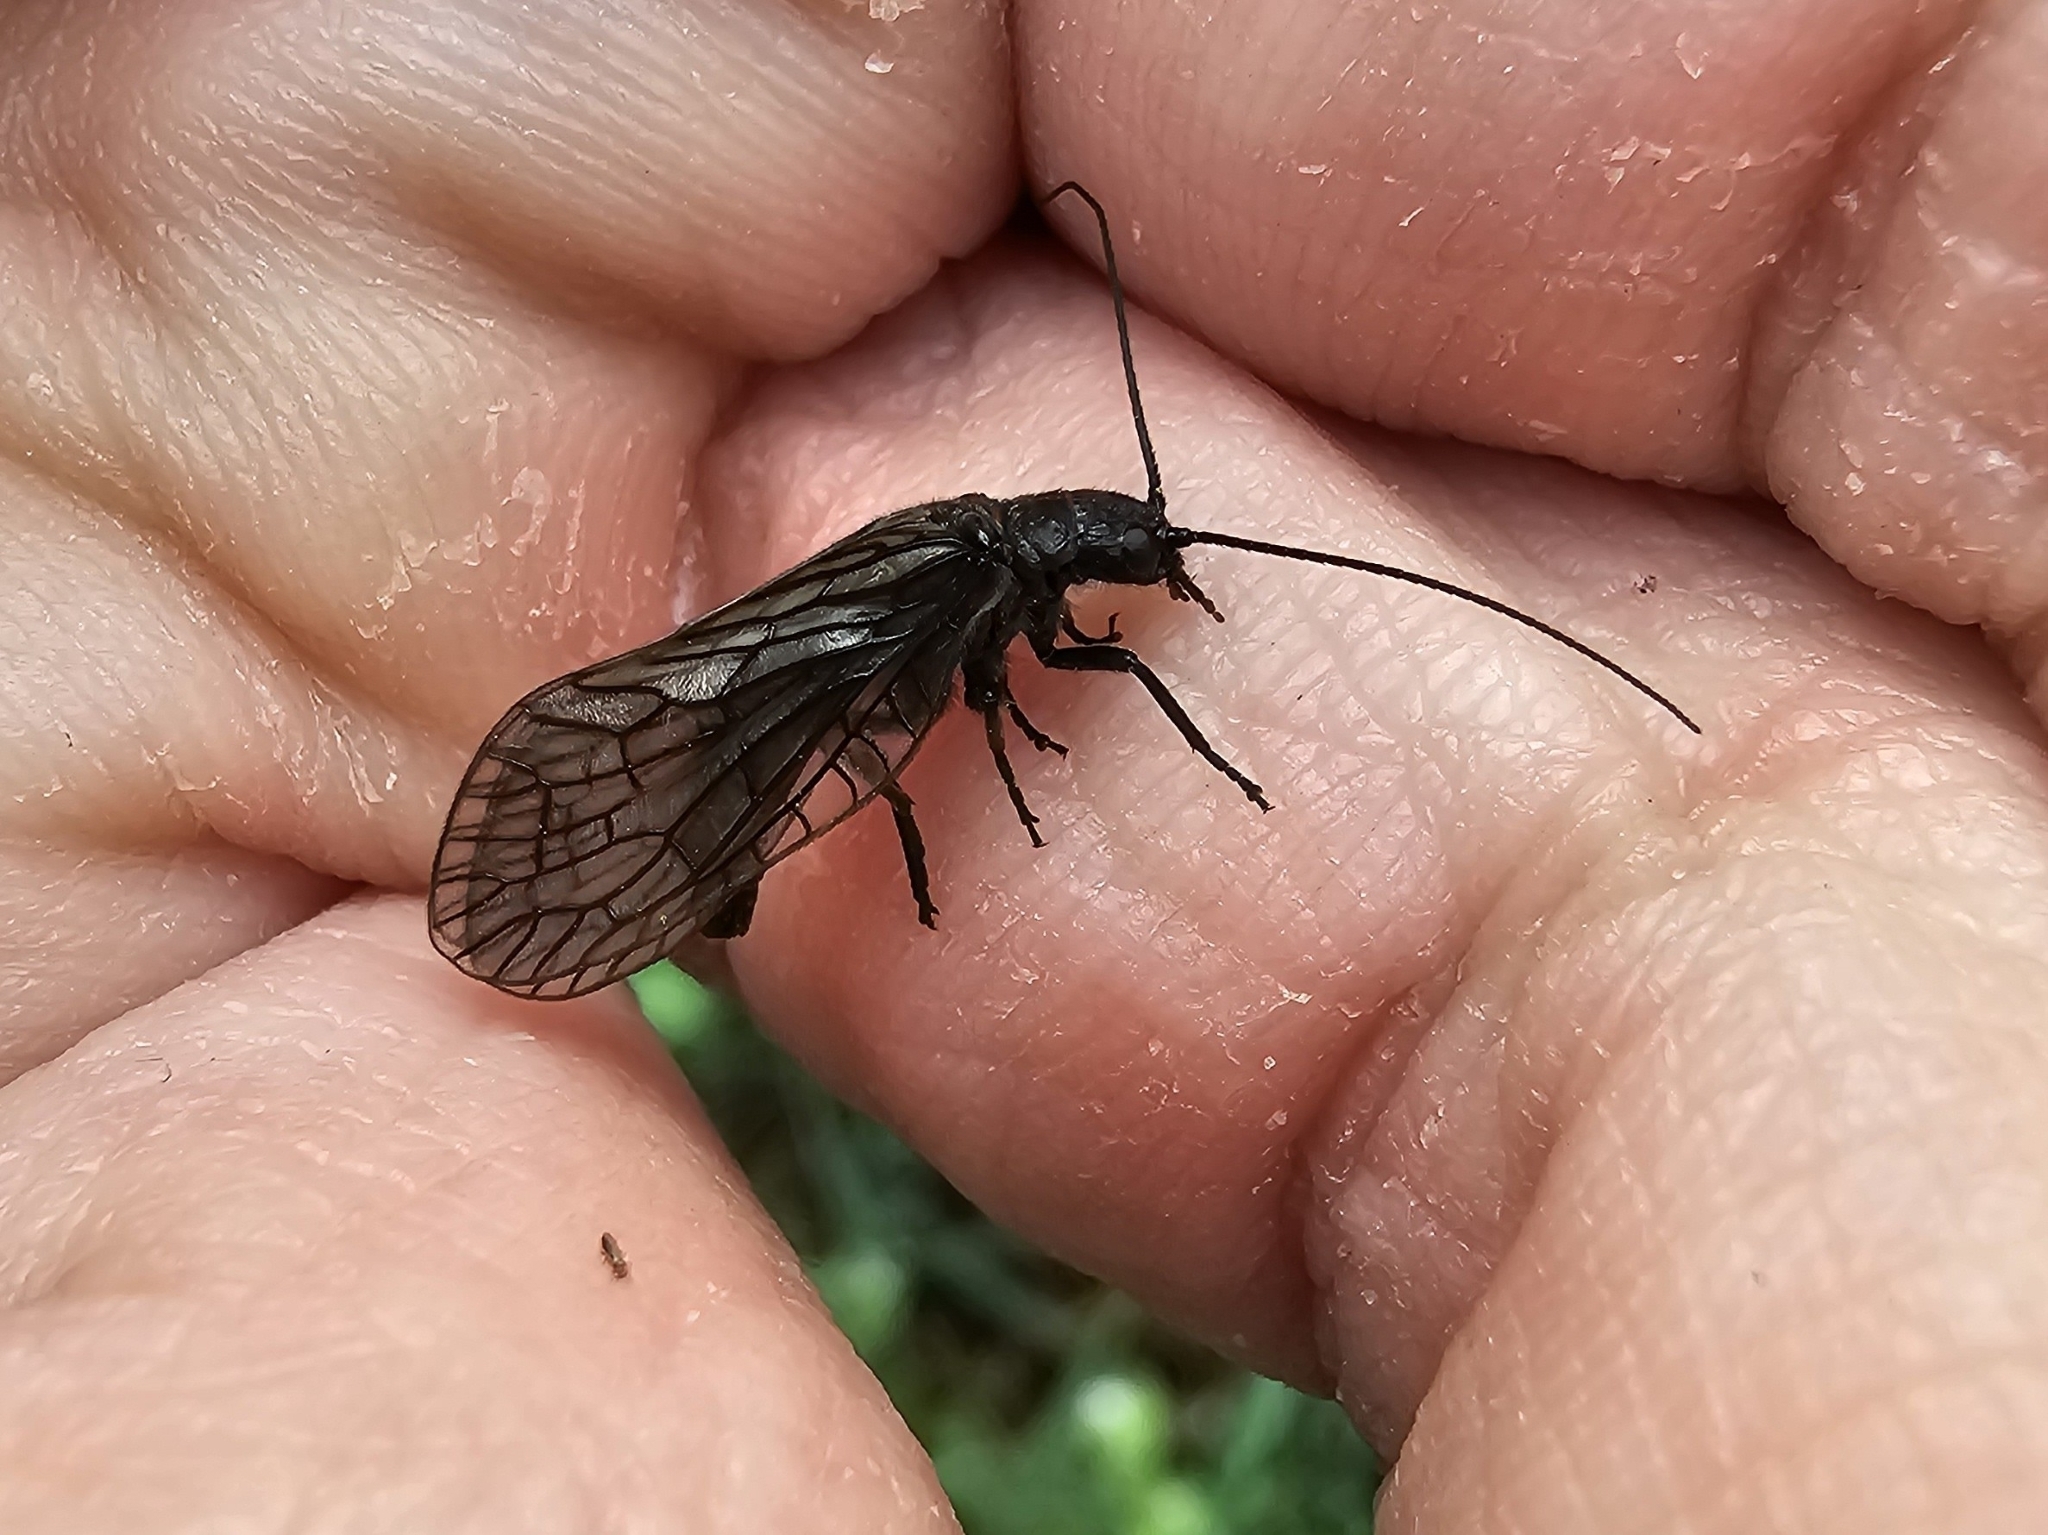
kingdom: Animalia
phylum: Arthropoda
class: Insecta
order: Megaloptera
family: Sialidae
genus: Sialis
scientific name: Sialis
